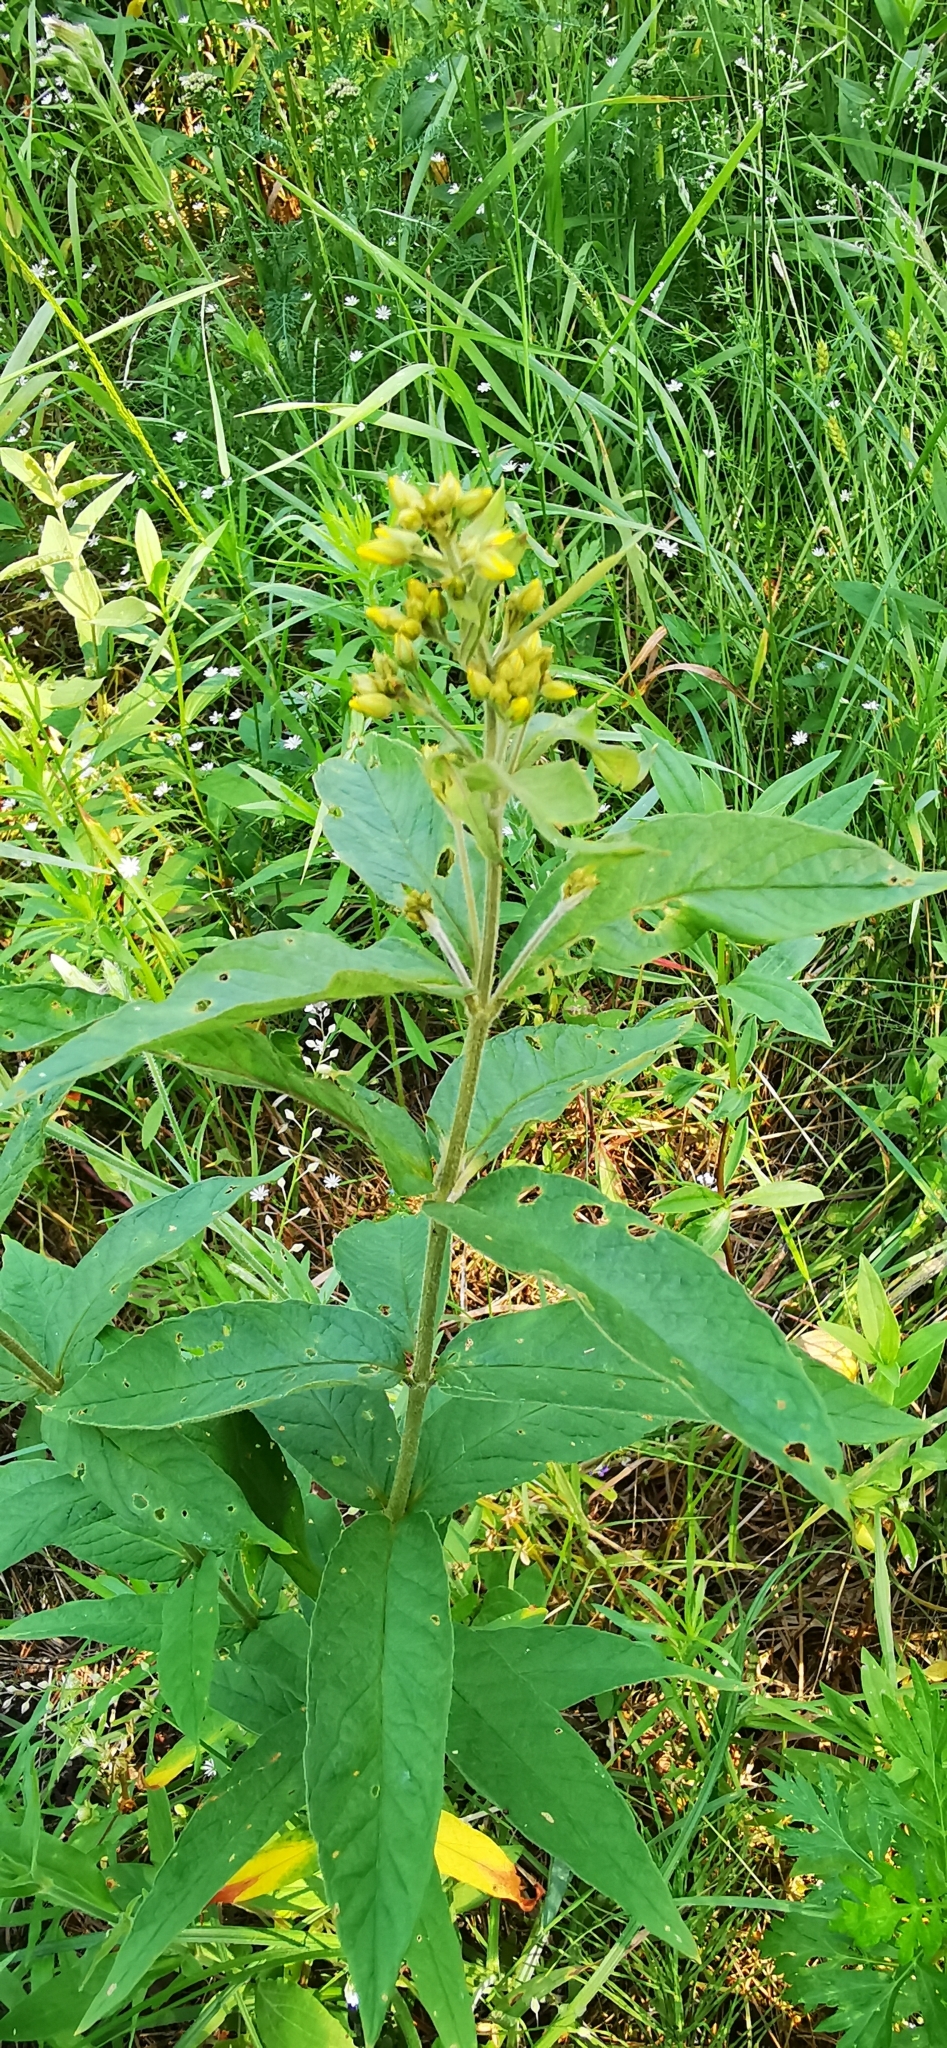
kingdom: Plantae
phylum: Tracheophyta
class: Magnoliopsida
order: Ericales
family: Primulaceae
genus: Lysimachia
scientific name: Lysimachia vulgaris
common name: Yellow loosestrife
